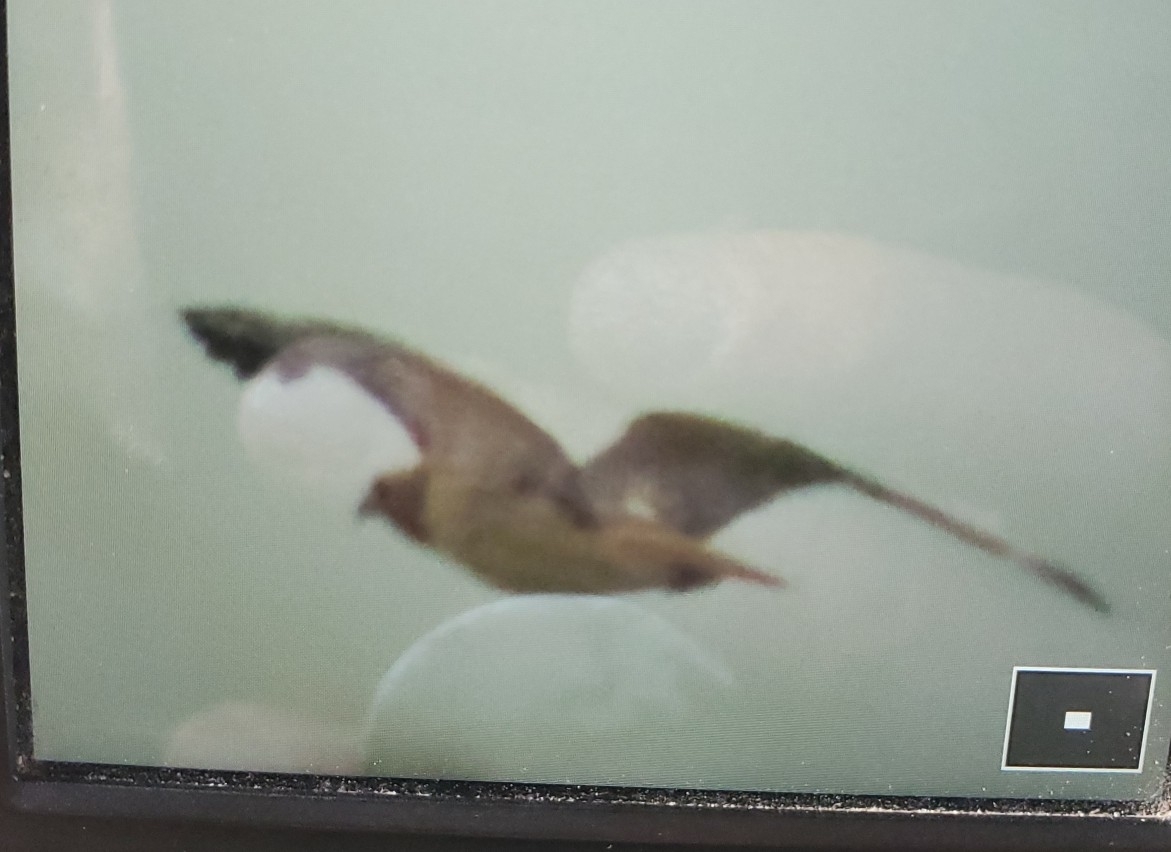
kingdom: Animalia
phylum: Chordata
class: Aves
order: Accipitriformes
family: Accipitridae
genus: Buteo
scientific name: Buteo jamaicensis
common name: Red-tailed hawk
